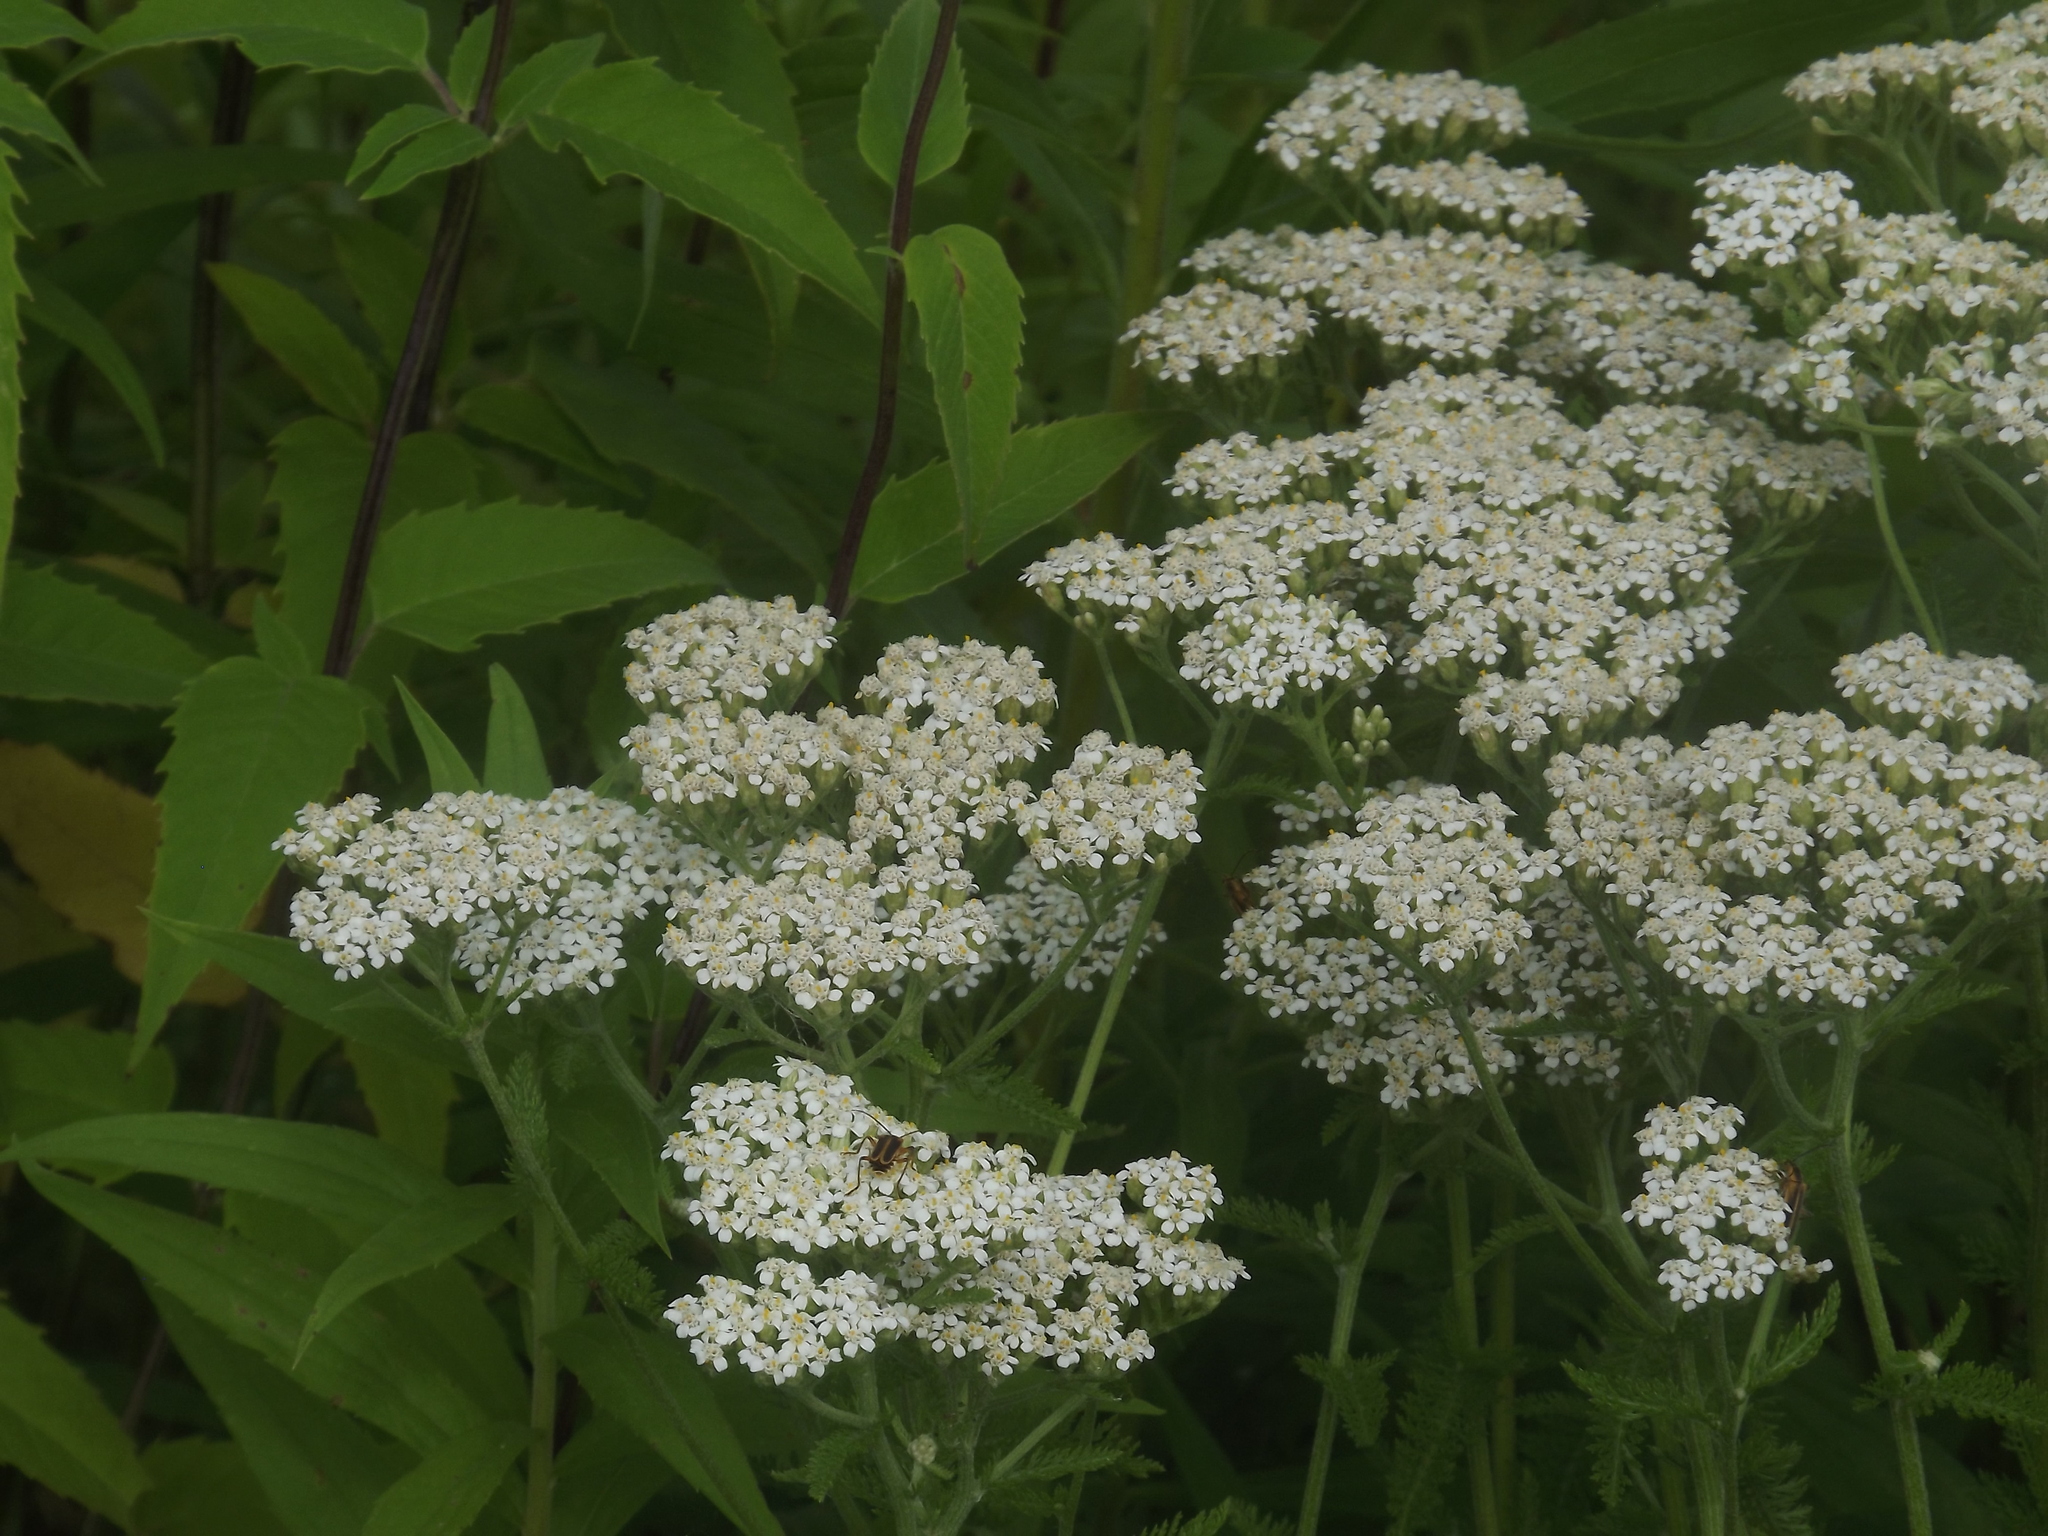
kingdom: Animalia
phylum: Arthropoda
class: Insecta
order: Coleoptera
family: Cantharidae
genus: Chauliognathus
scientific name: Chauliognathus marginatus
